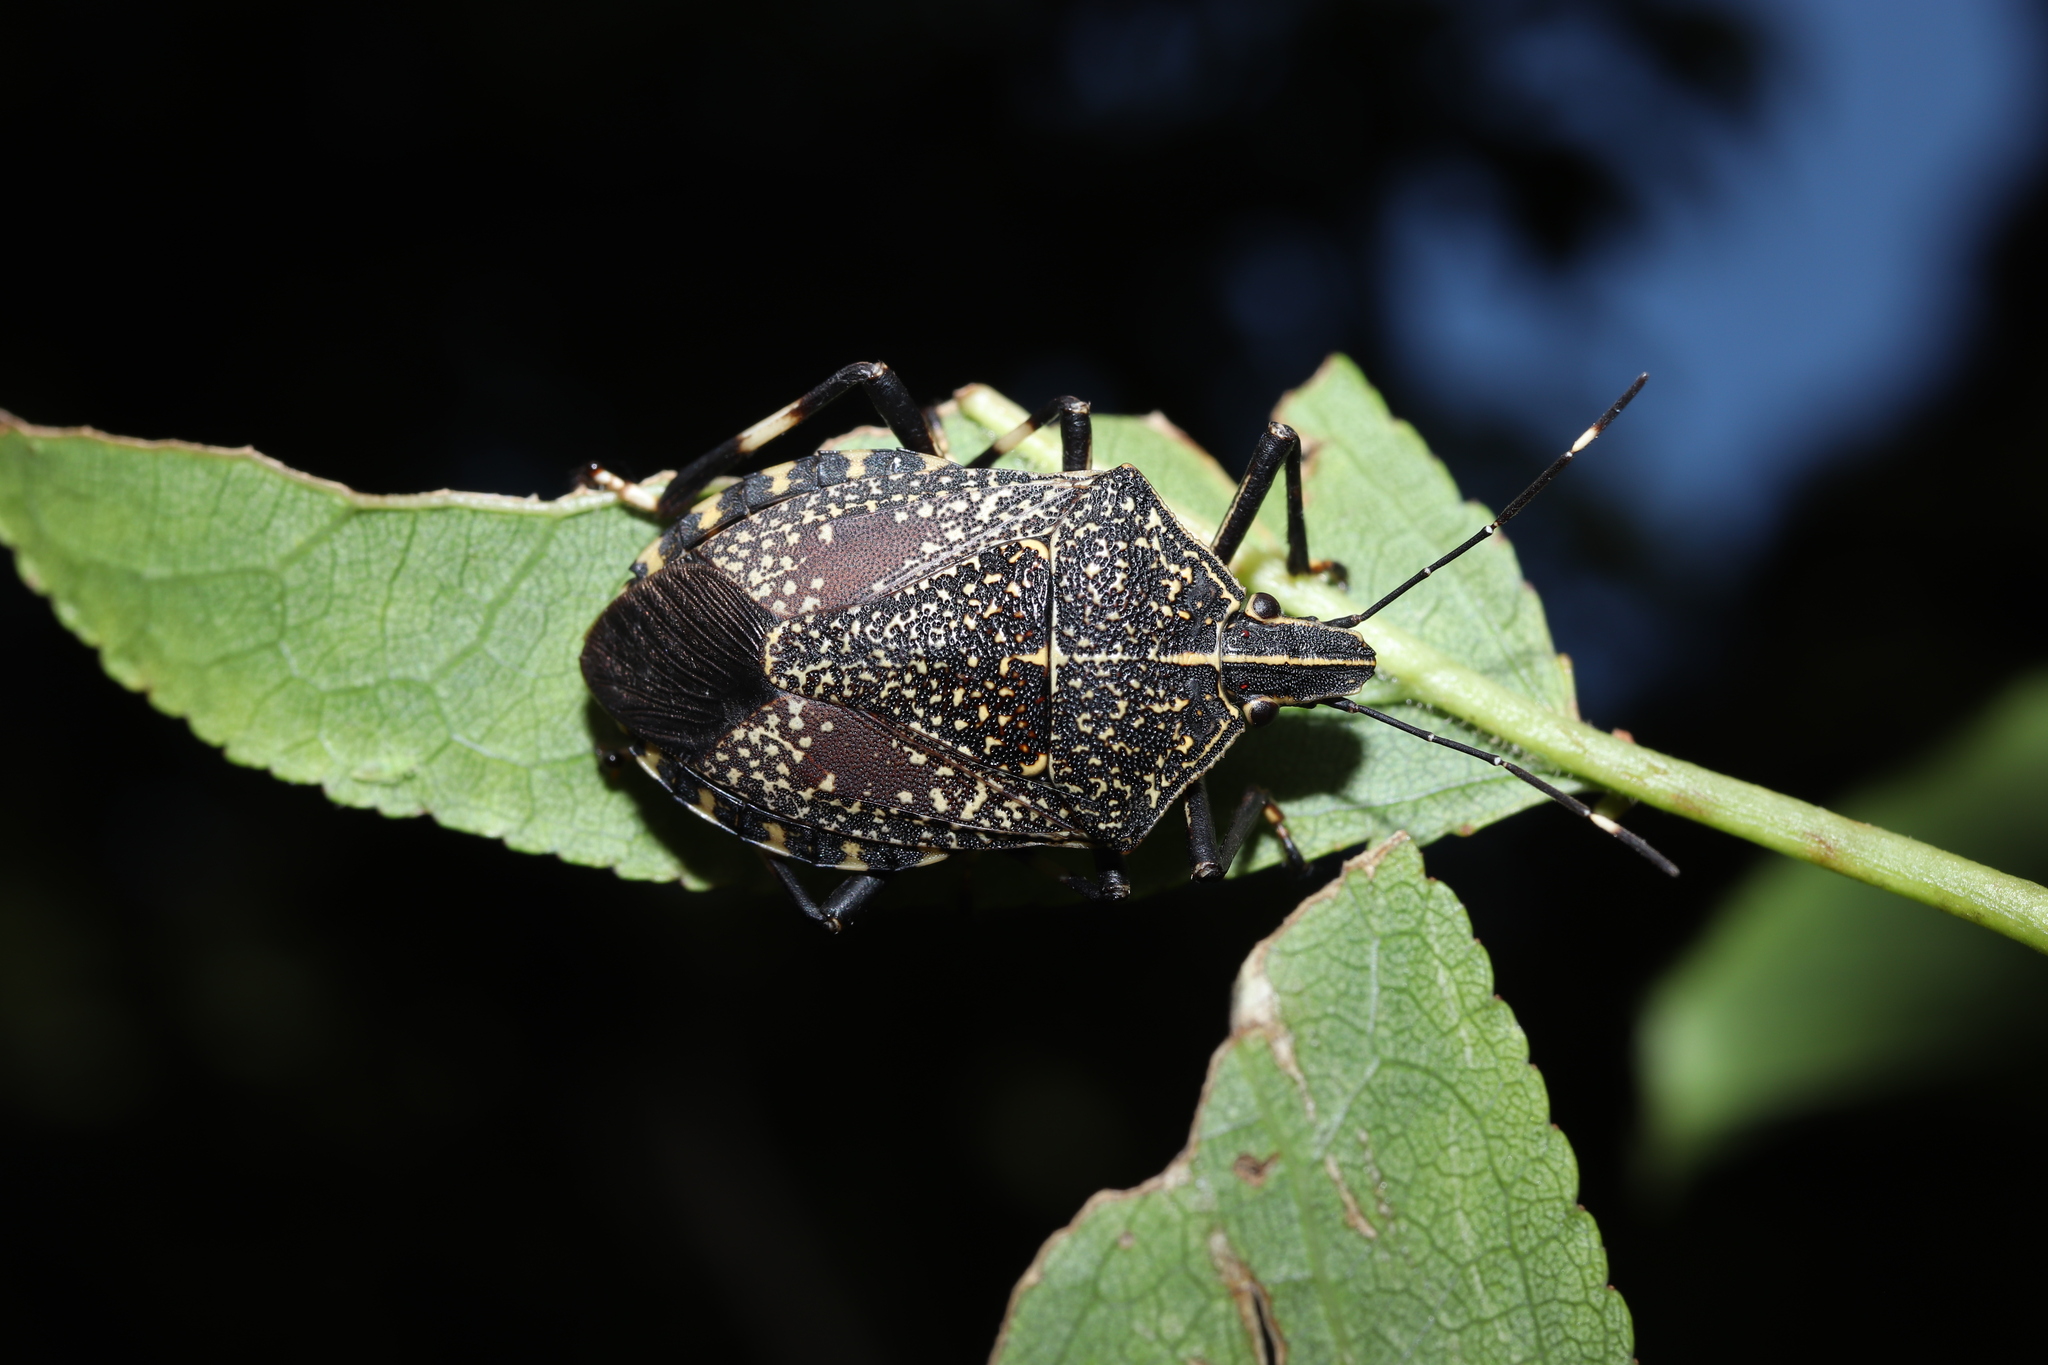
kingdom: Animalia
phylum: Arthropoda
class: Insecta
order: Hemiptera
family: Pentatomidae
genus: Erthesina
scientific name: Erthesina fullo
